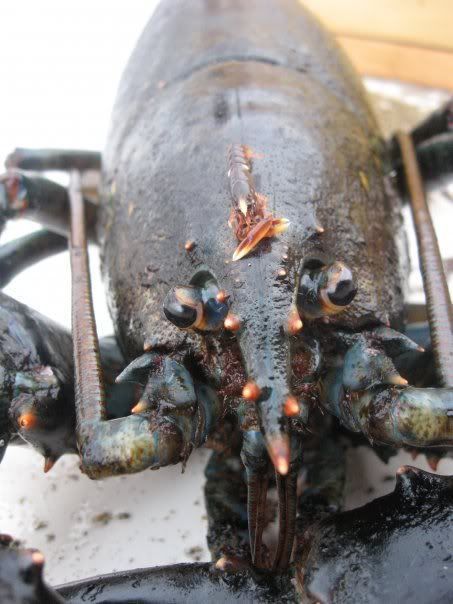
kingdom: Animalia
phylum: Arthropoda
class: Malacostraca
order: Decapoda
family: Nephropidae
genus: Homarus
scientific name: Homarus americanus
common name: American lobster
